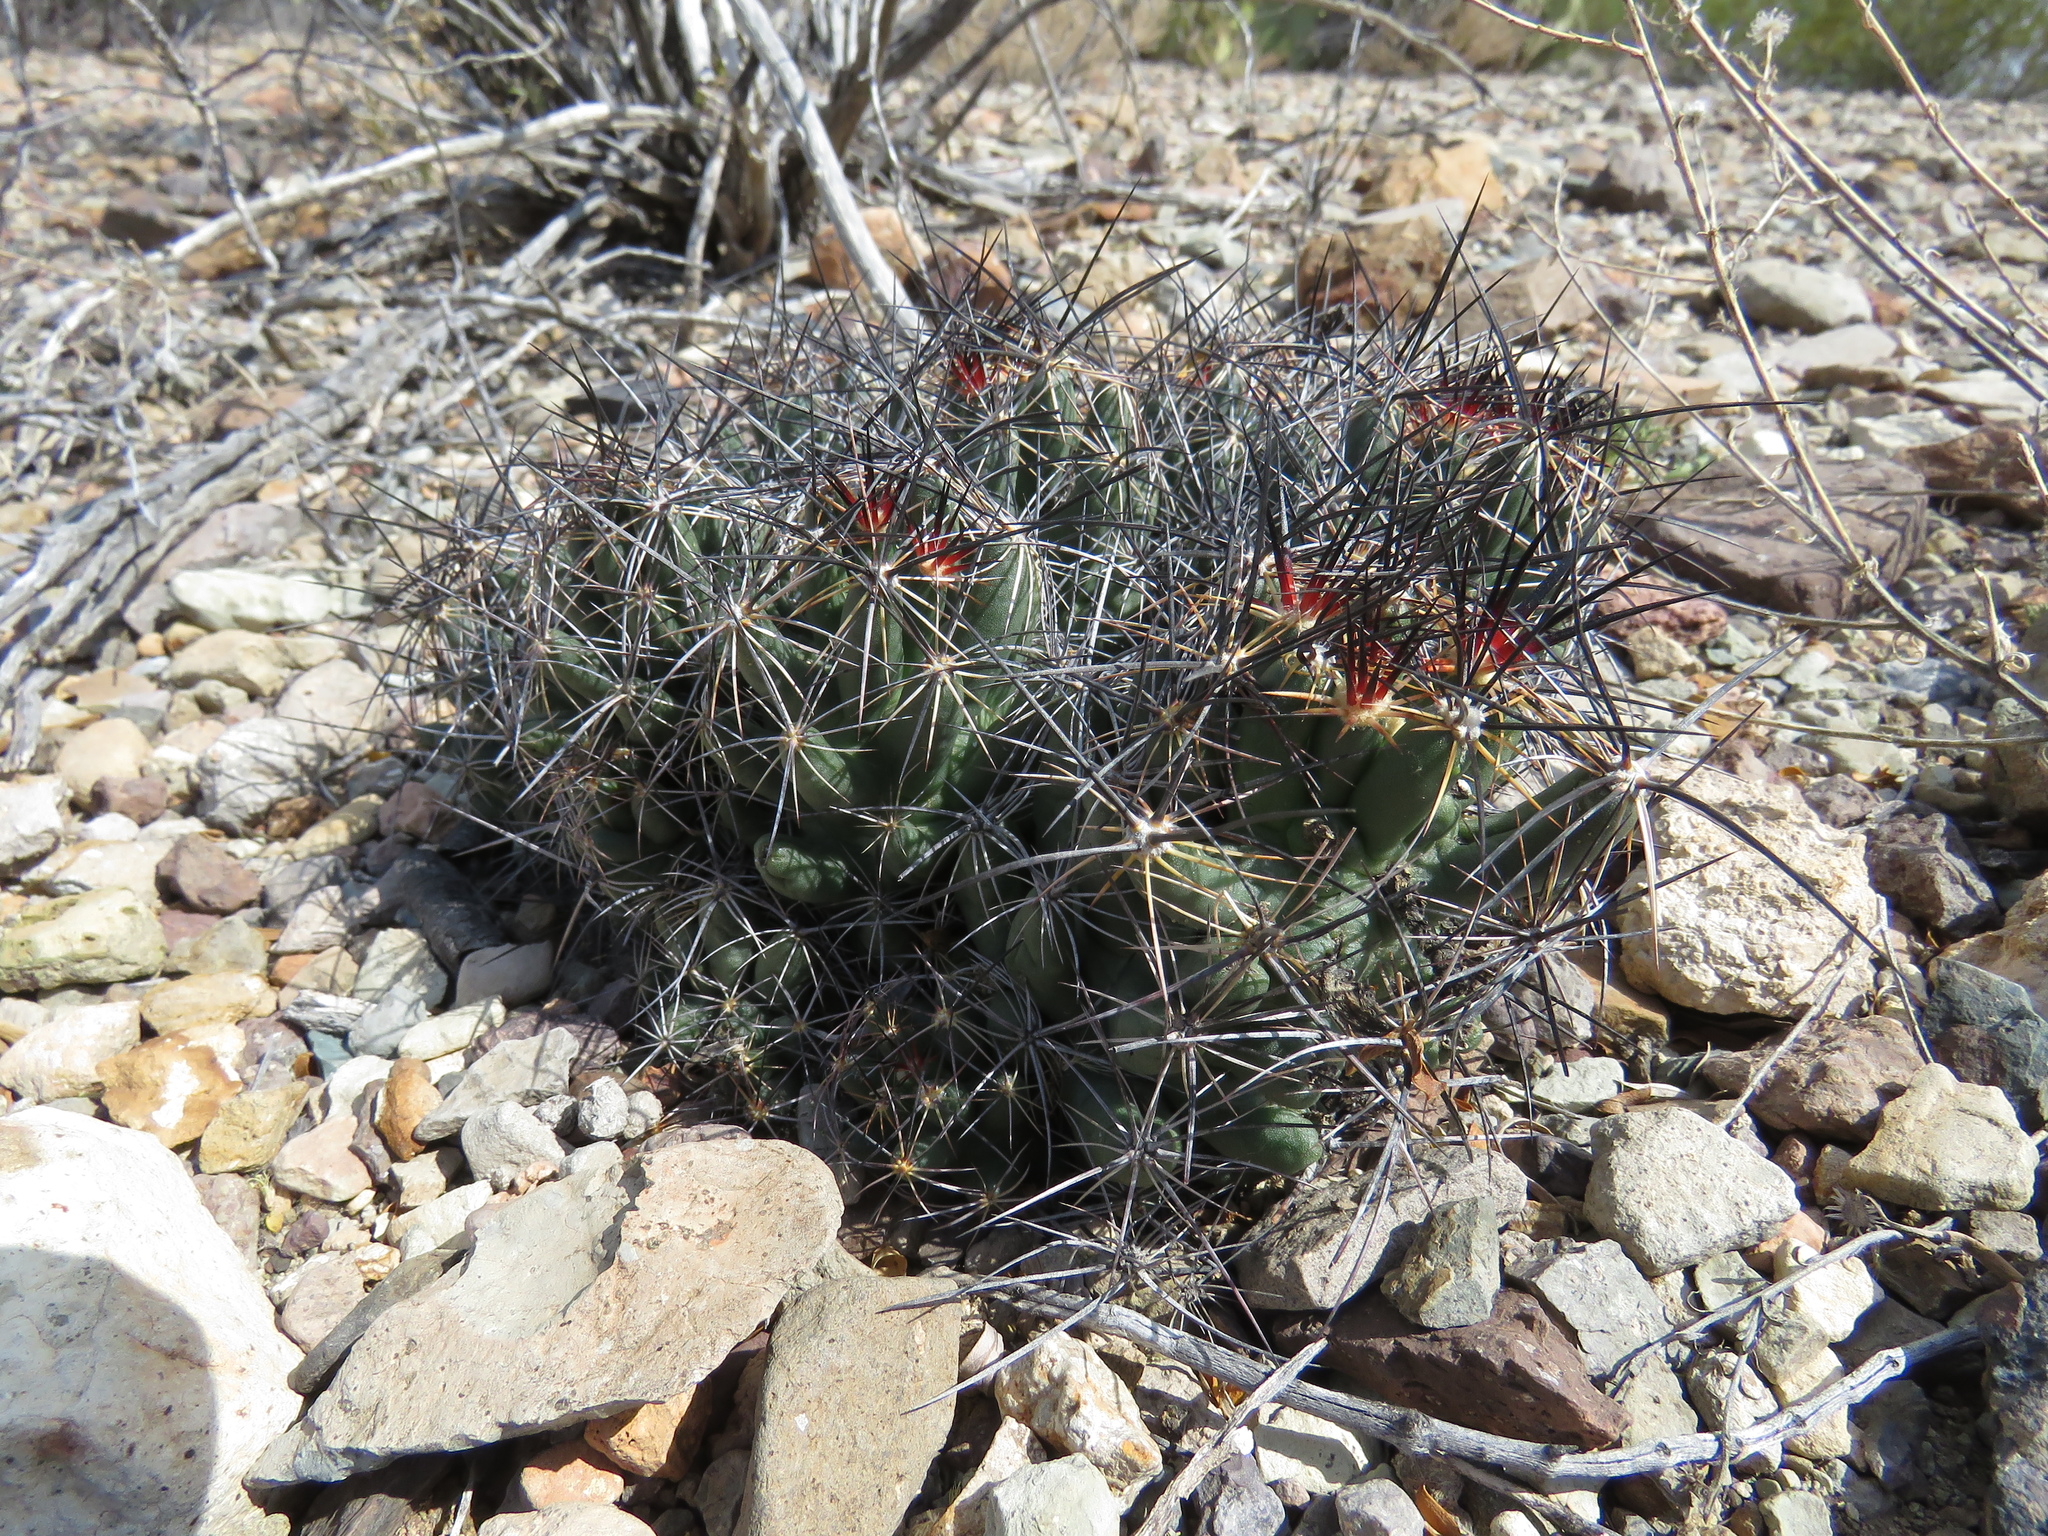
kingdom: Plantae
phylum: Tracheophyta
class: Magnoliopsida
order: Caryophyllales
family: Cactaceae
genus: Coryphantha
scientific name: Coryphantha macromeris
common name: Nipple beehive cactus
